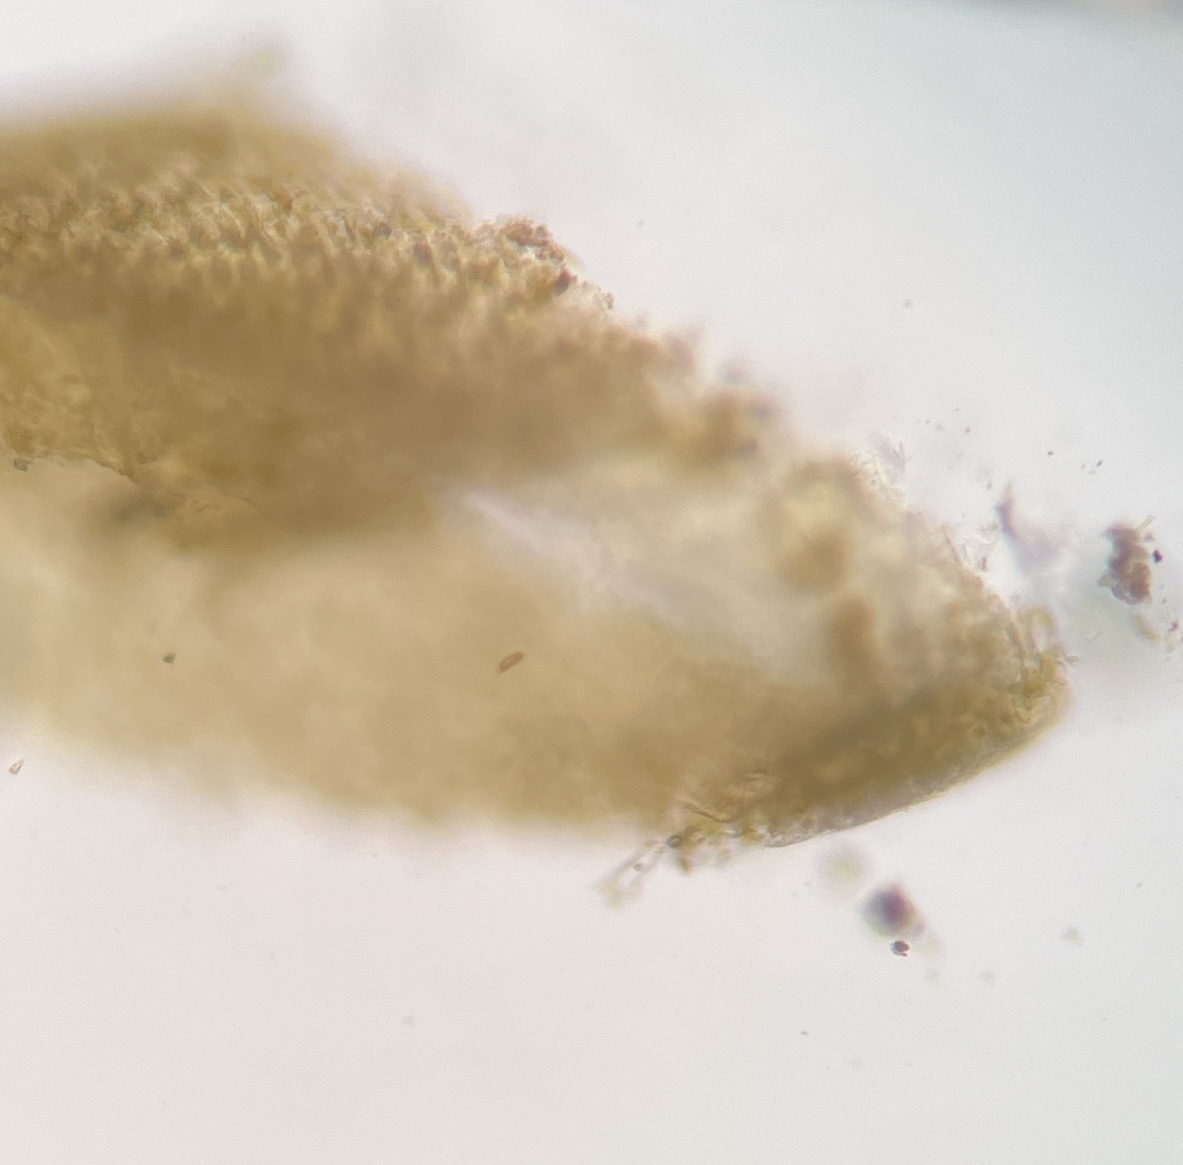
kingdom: Chromista
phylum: Ochrophyta
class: Phaeophyceae
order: Dictyotales
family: Dictyotaceae
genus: Padina
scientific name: Padina sanctae-crucis
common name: White scroll algae
